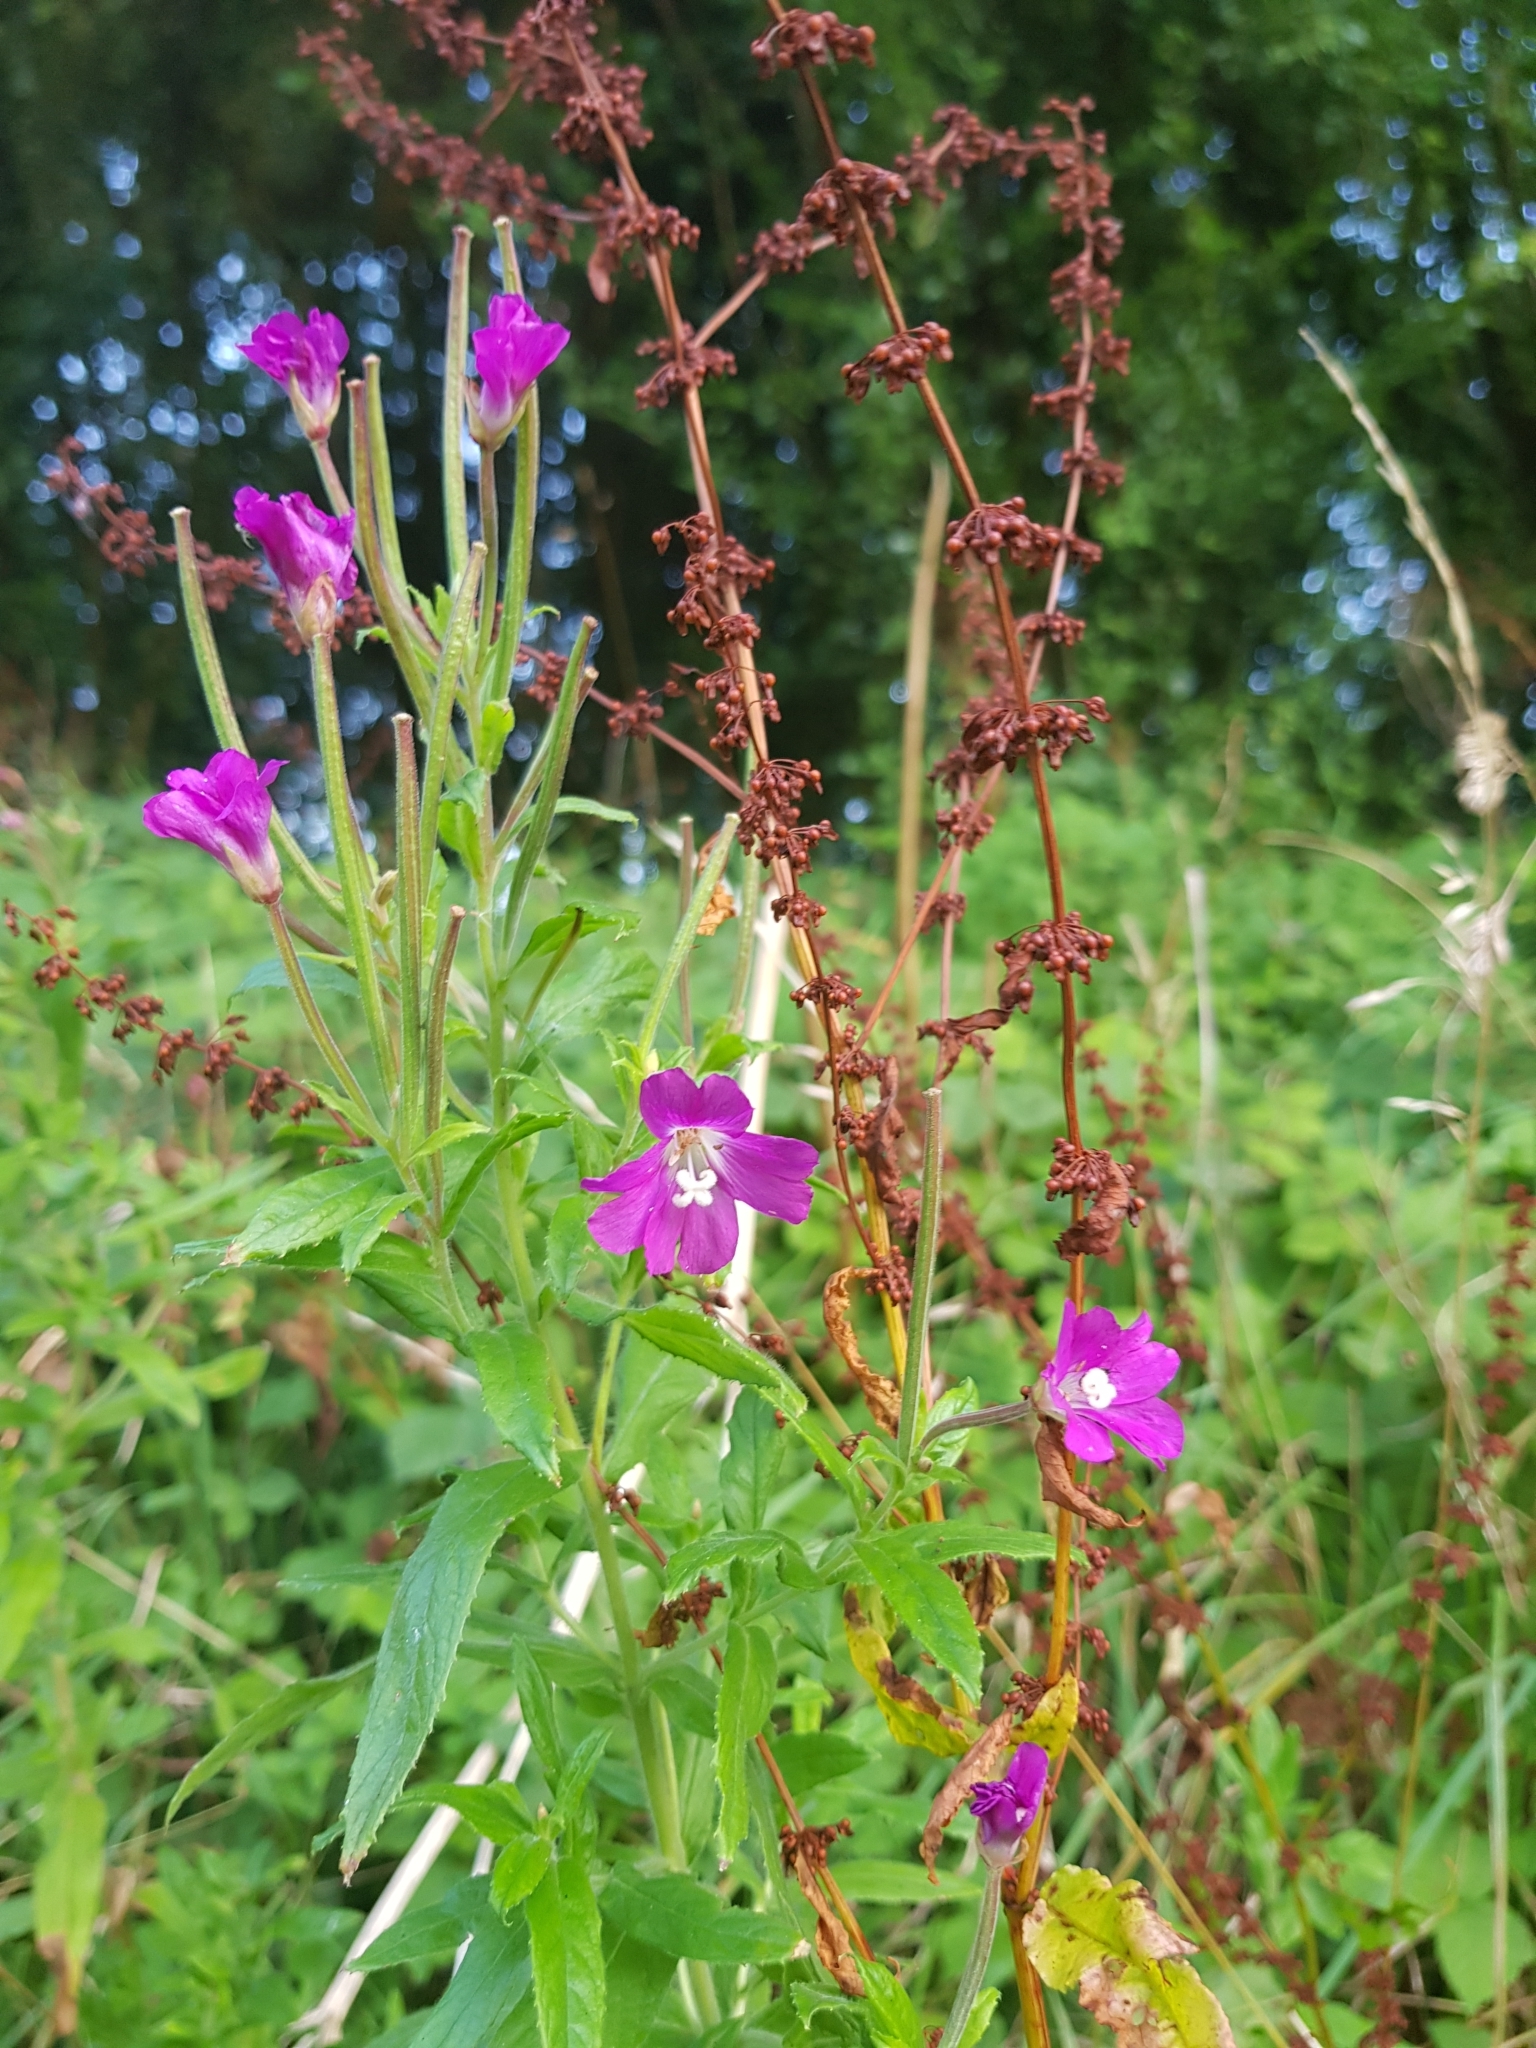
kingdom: Plantae
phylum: Tracheophyta
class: Magnoliopsida
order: Myrtales
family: Onagraceae
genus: Epilobium
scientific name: Epilobium hirsutum
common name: Great willowherb
